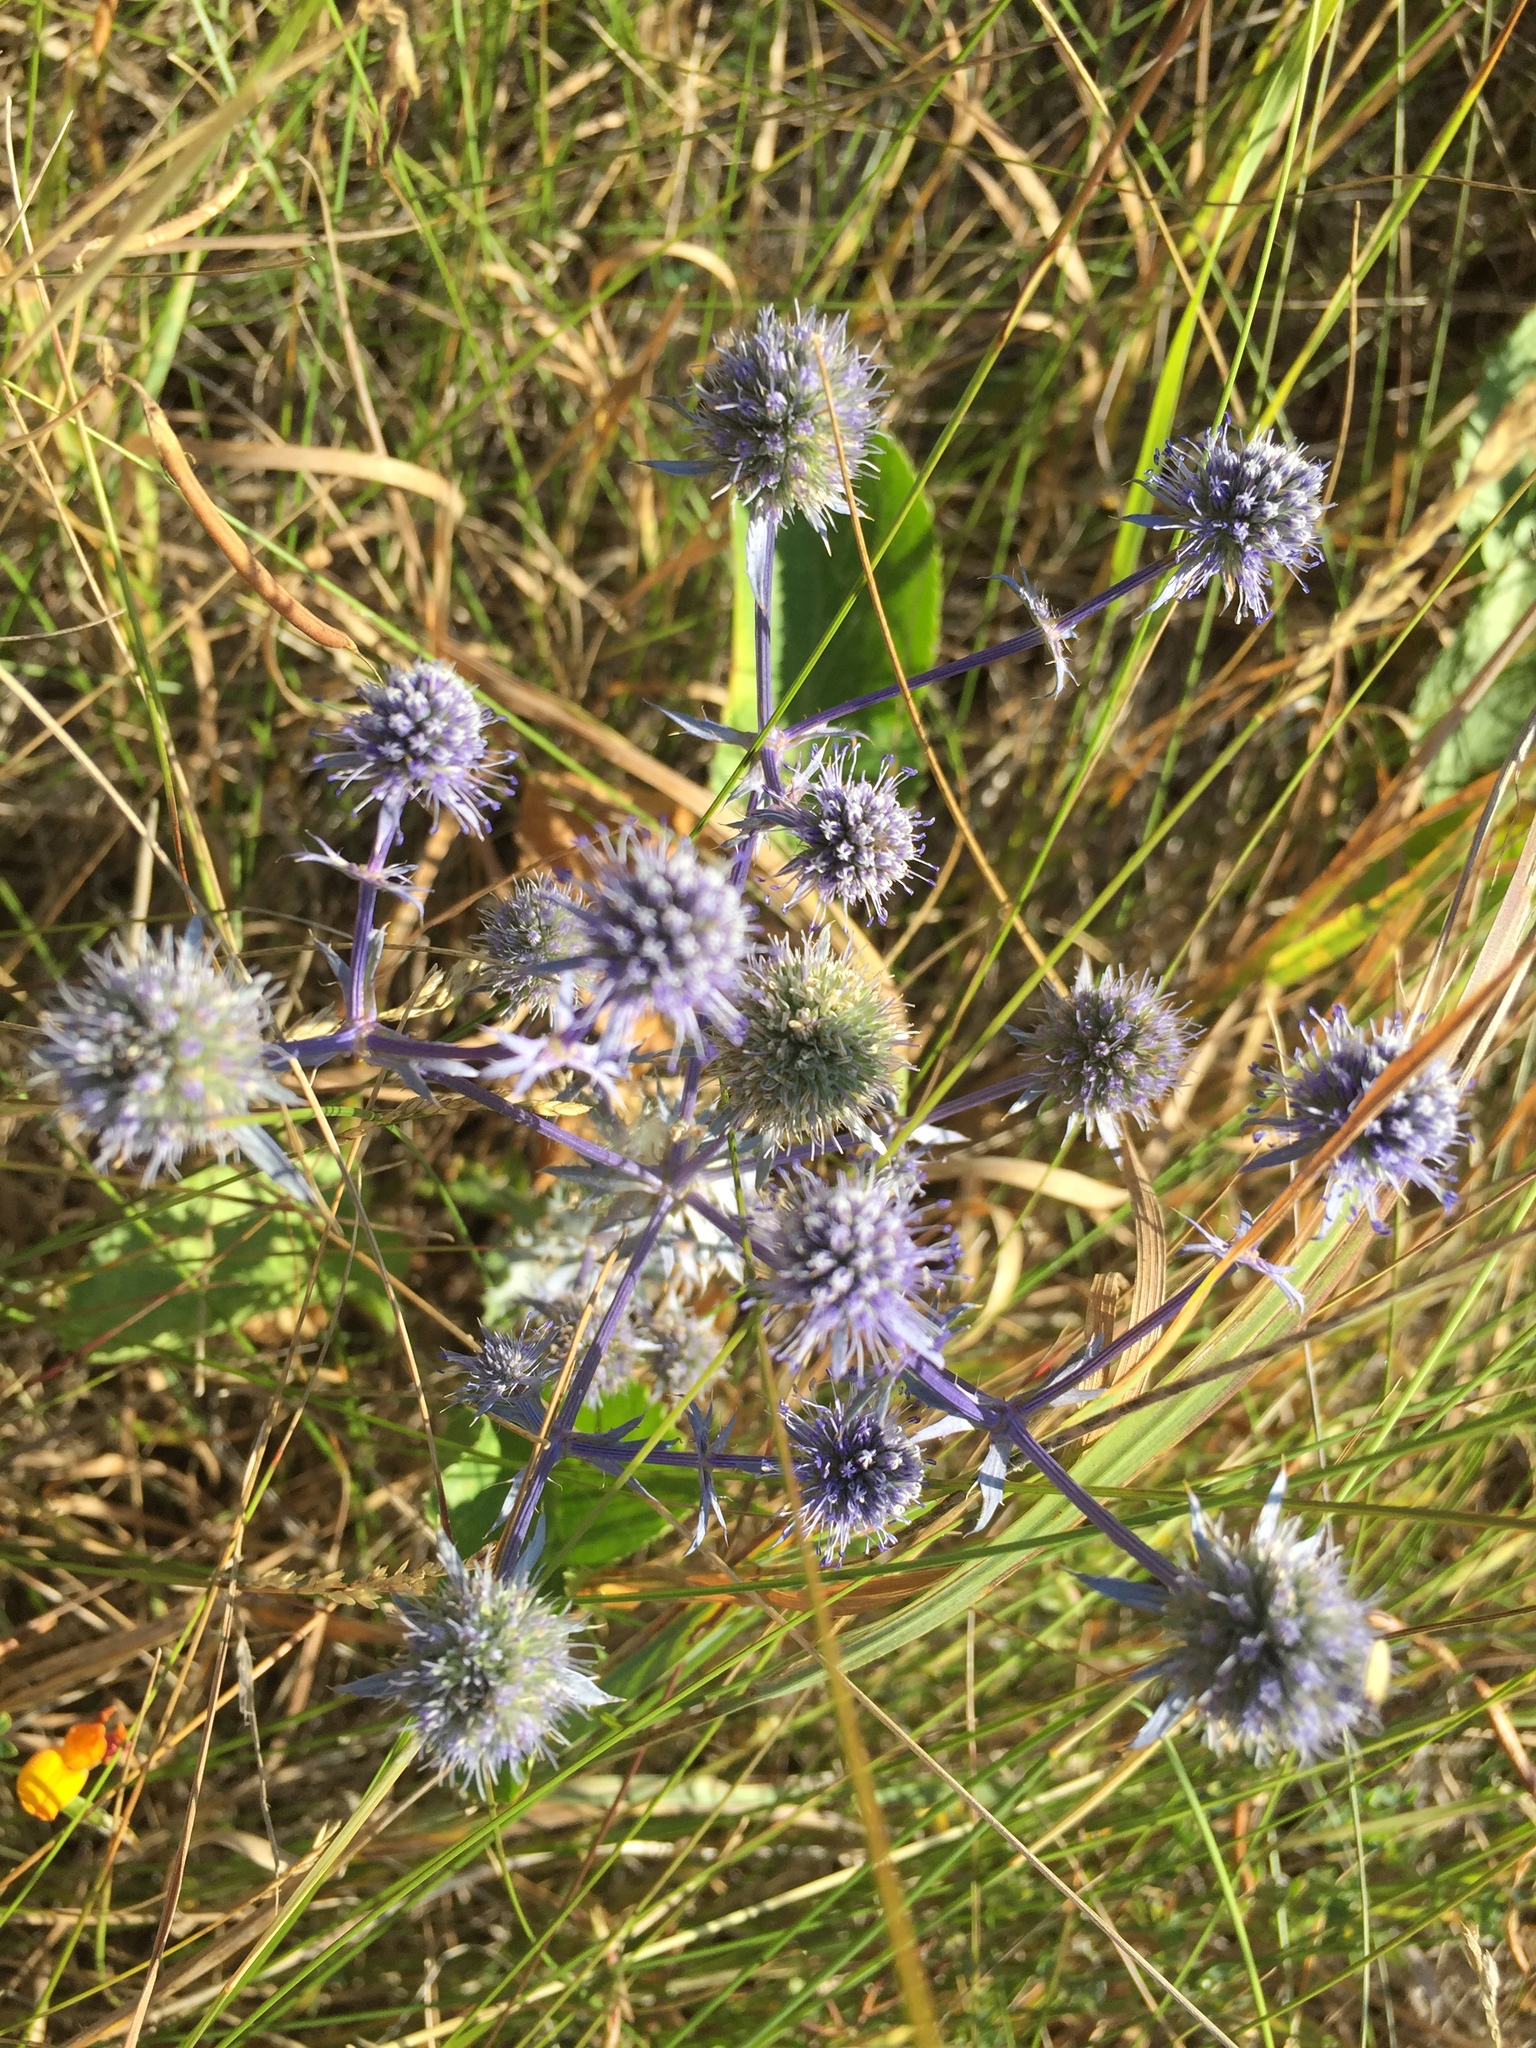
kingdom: Plantae
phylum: Tracheophyta
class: Magnoliopsida
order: Apiales
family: Apiaceae
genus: Eryngium
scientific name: Eryngium planum
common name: Blue eryngo
